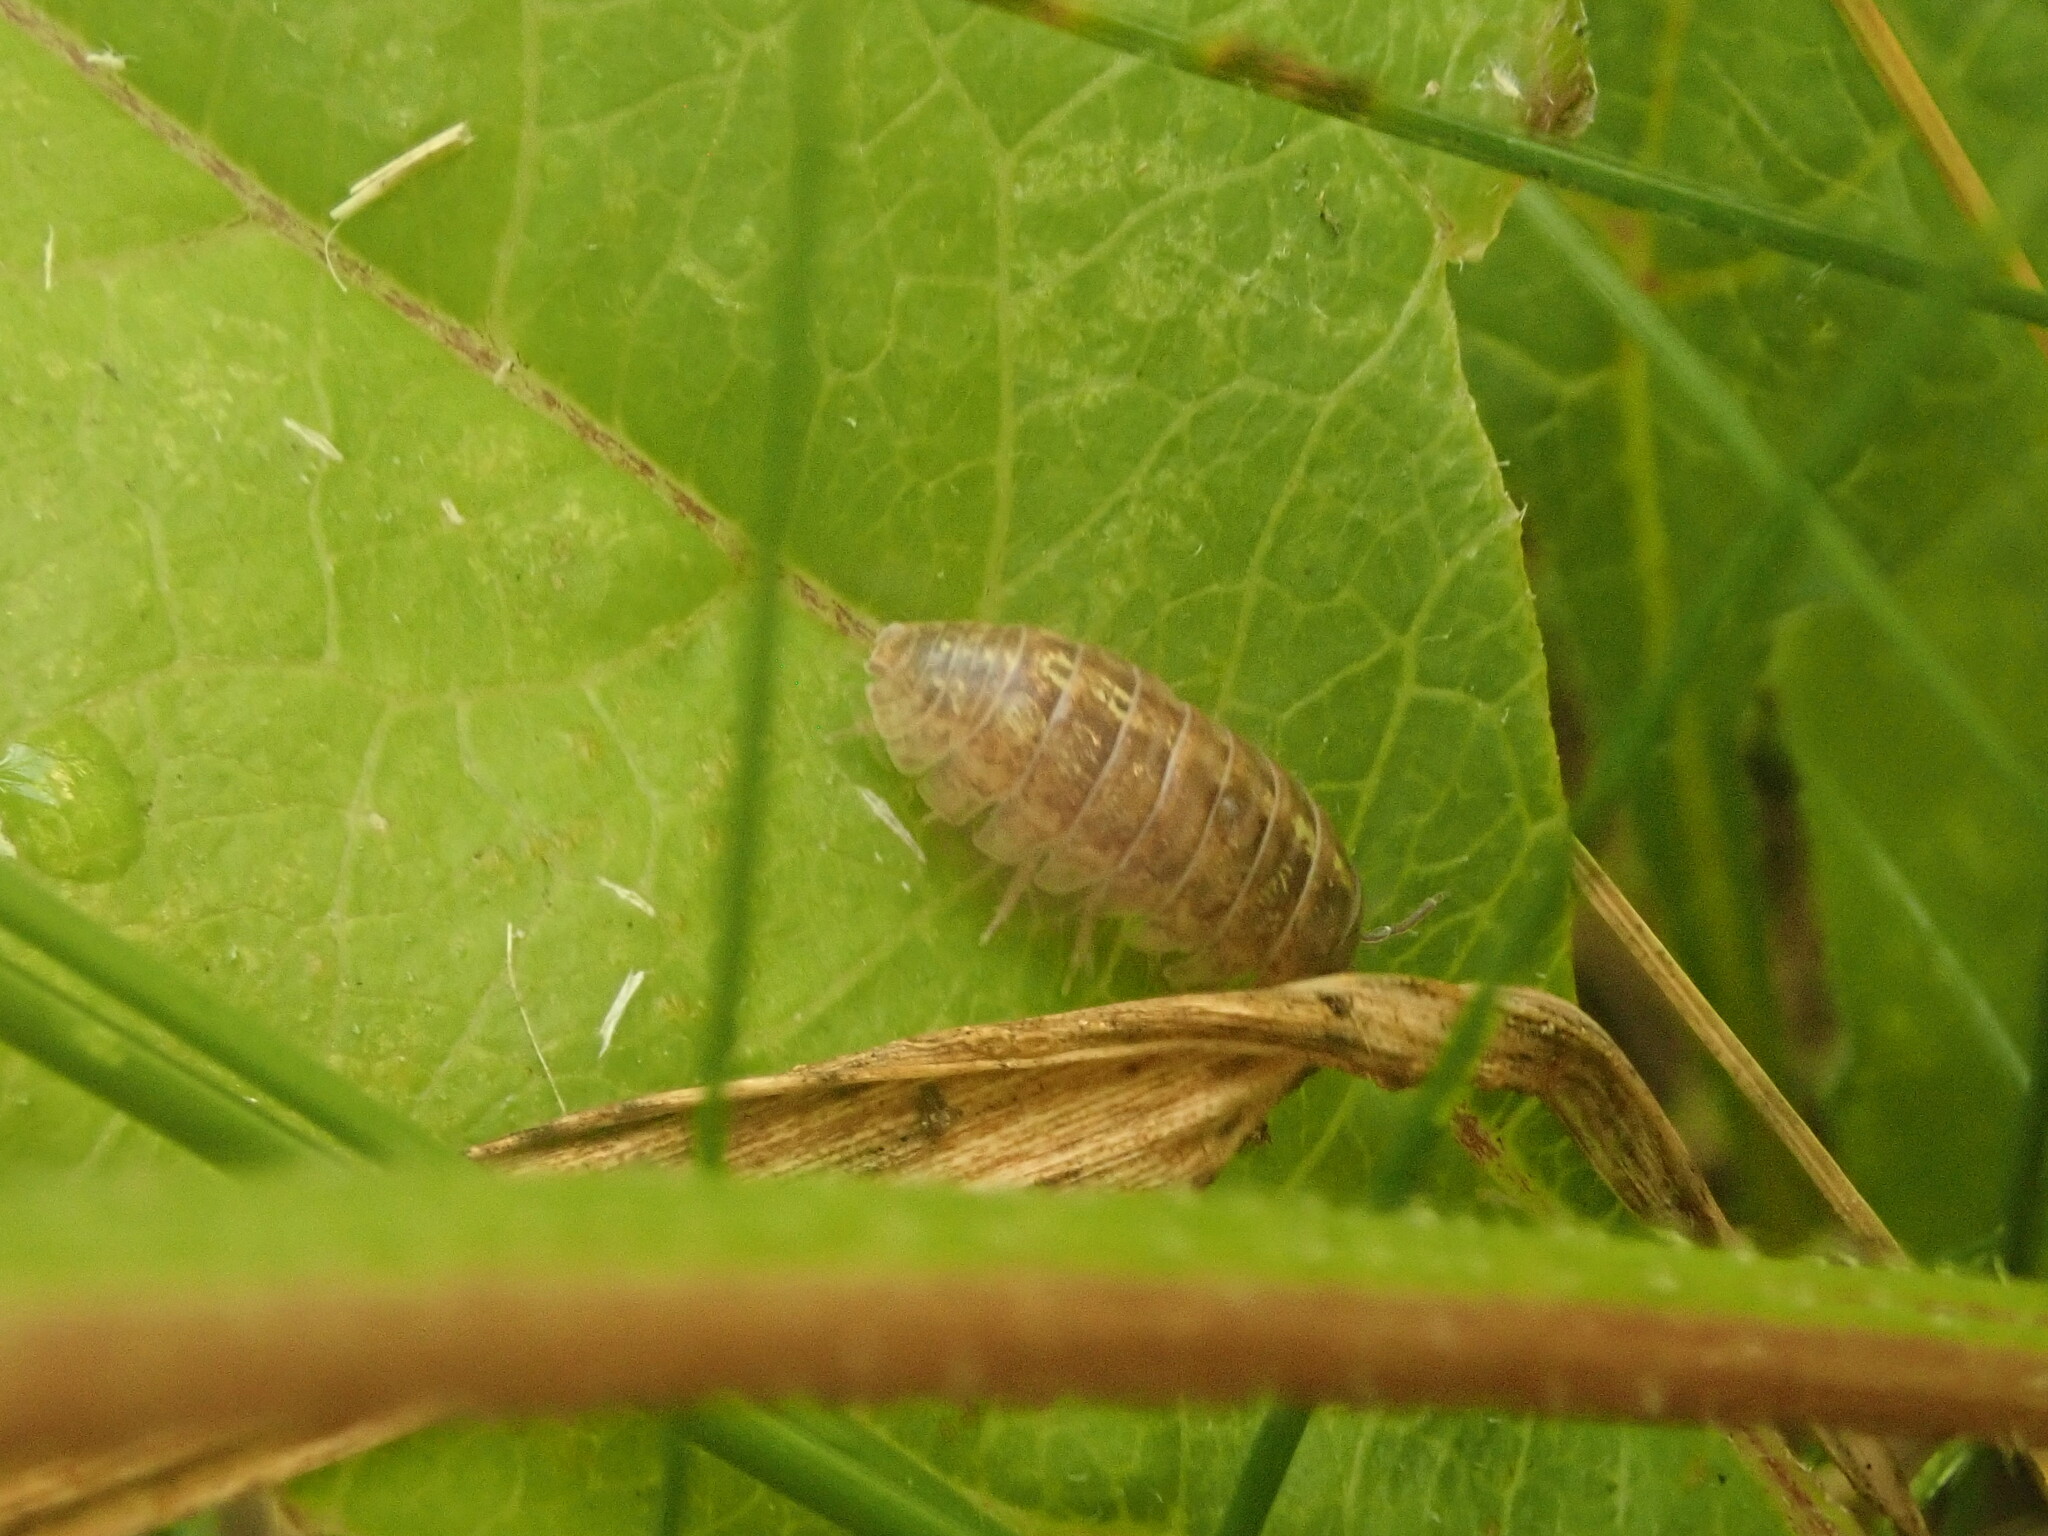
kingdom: Animalia
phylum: Arthropoda
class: Malacostraca
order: Isopoda
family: Armadillidiidae
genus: Armadillidium
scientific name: Armadillidium vulgare
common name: Common pill woodlouse
